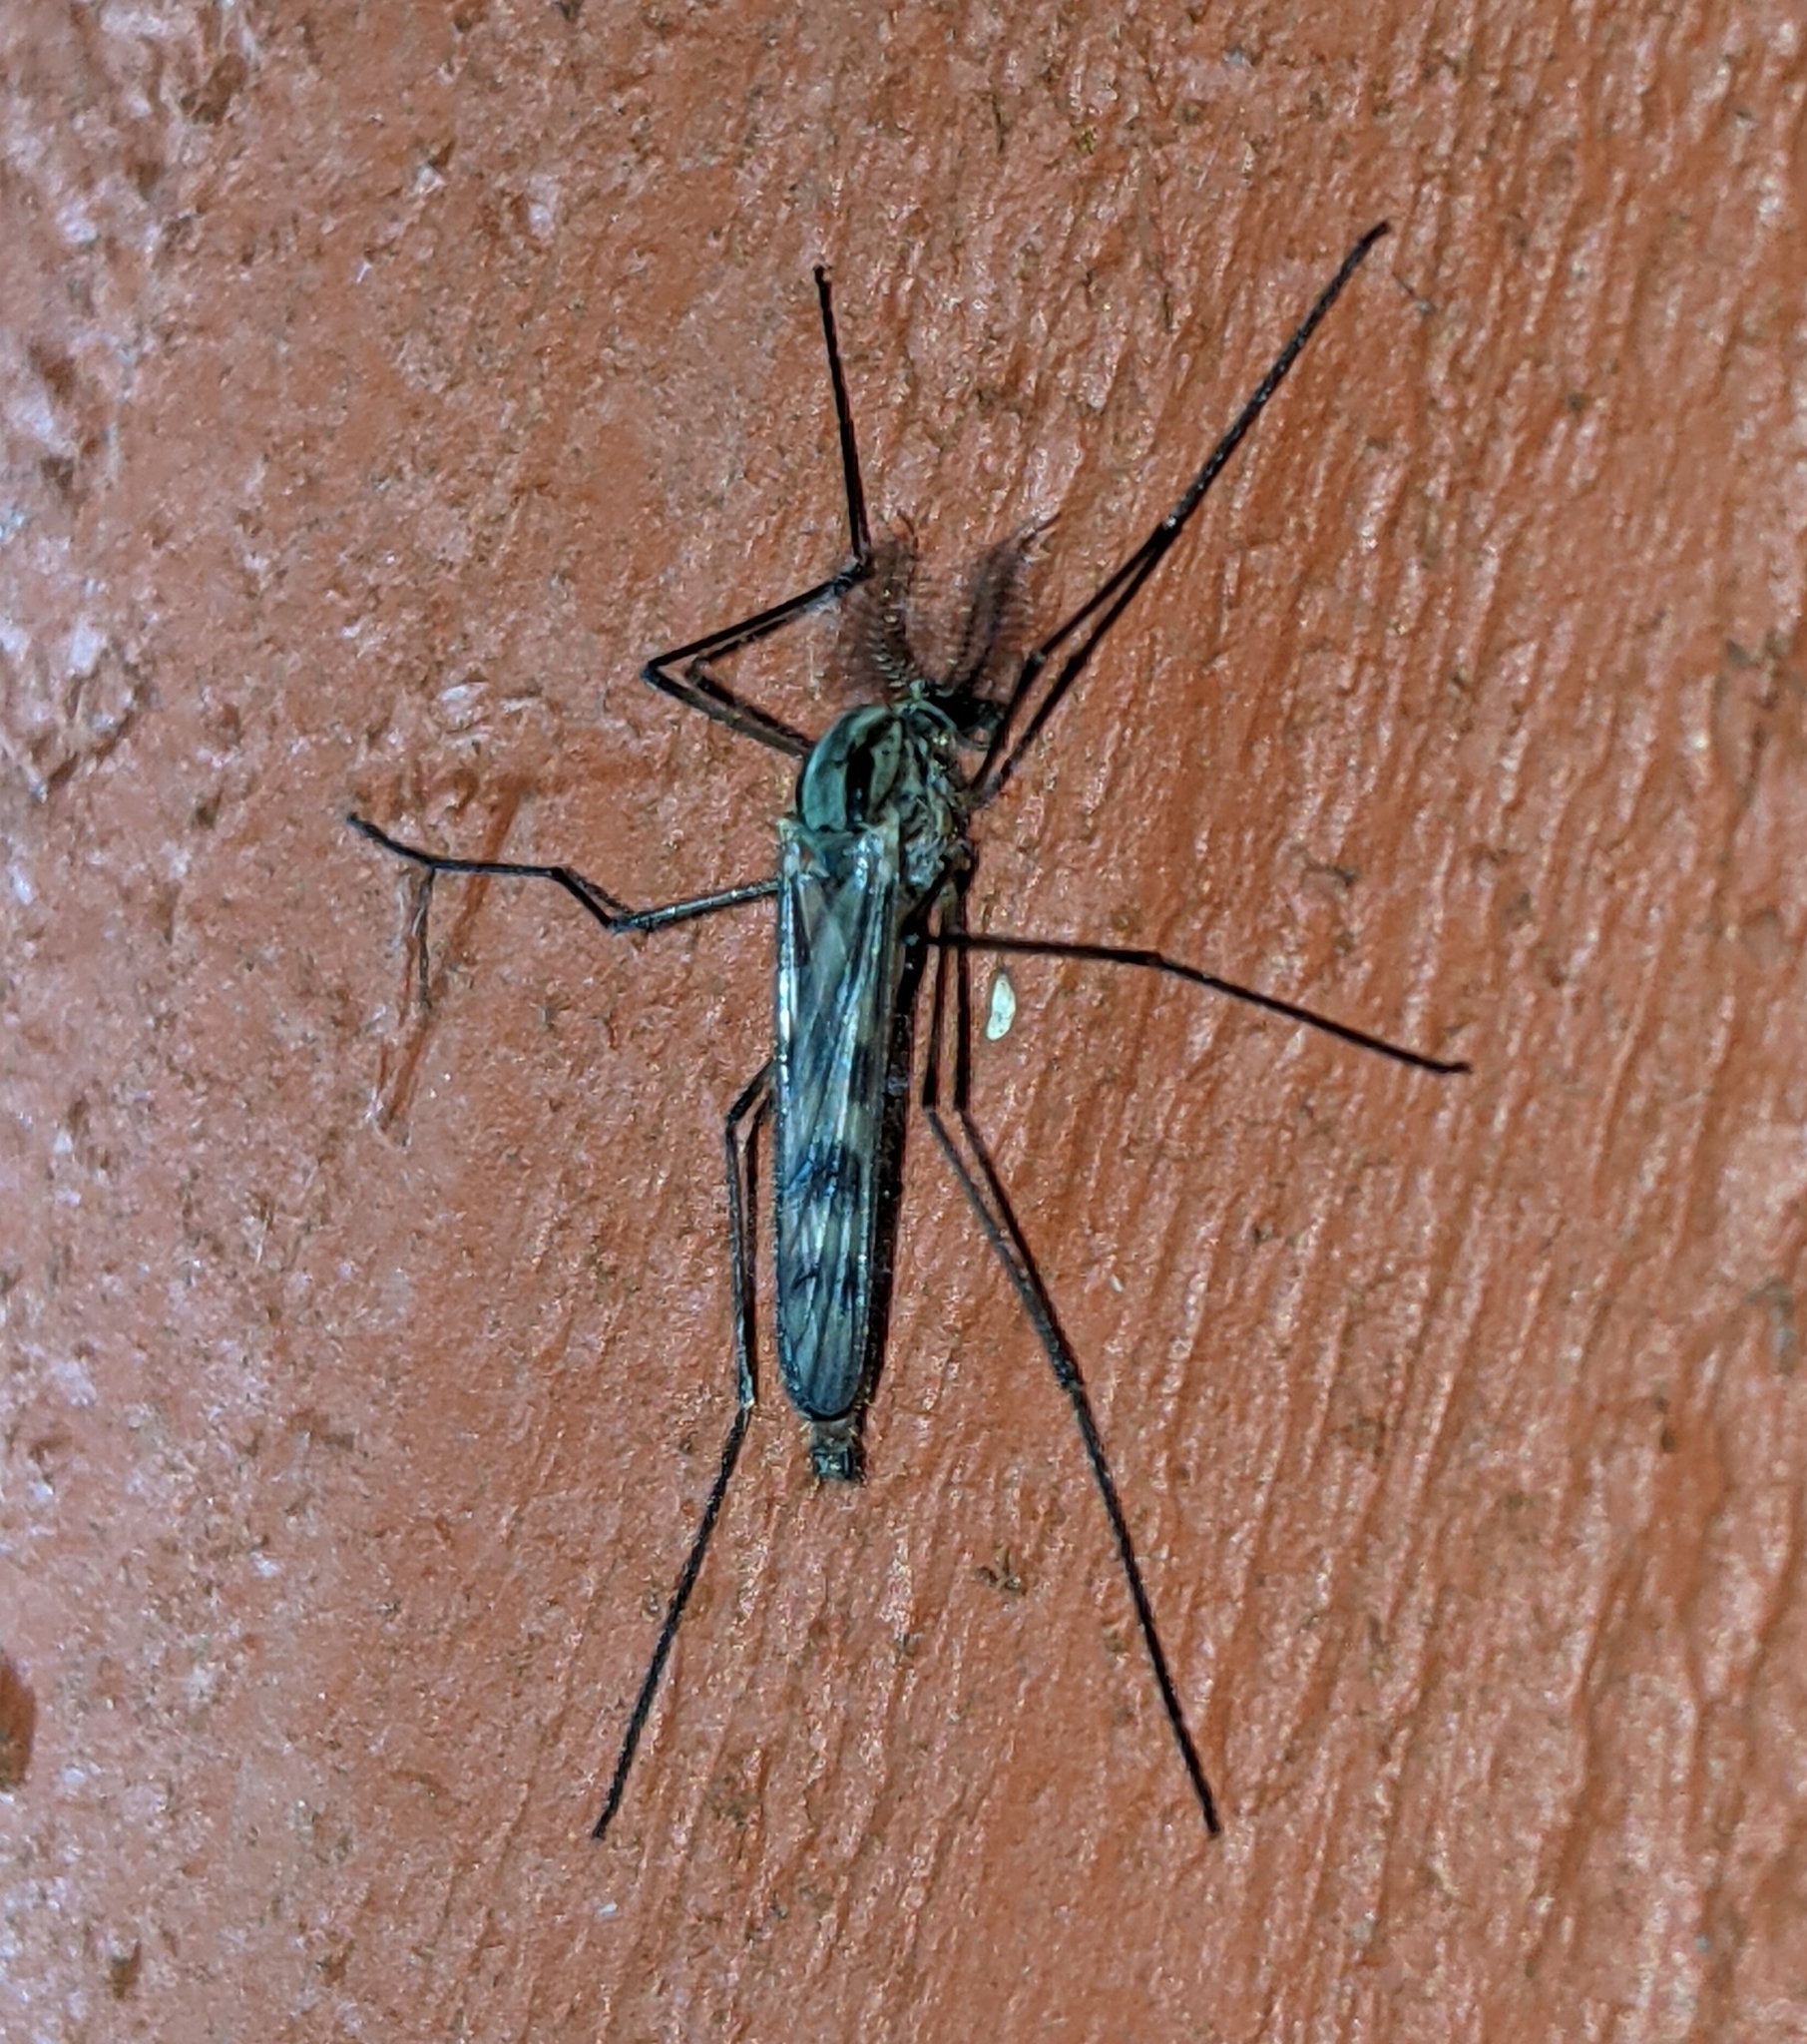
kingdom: Animalia
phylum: Arthropoda
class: Insecta
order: Diptera
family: Chaoboridae
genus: Eucorethra
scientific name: Eucorethra underwoodi
